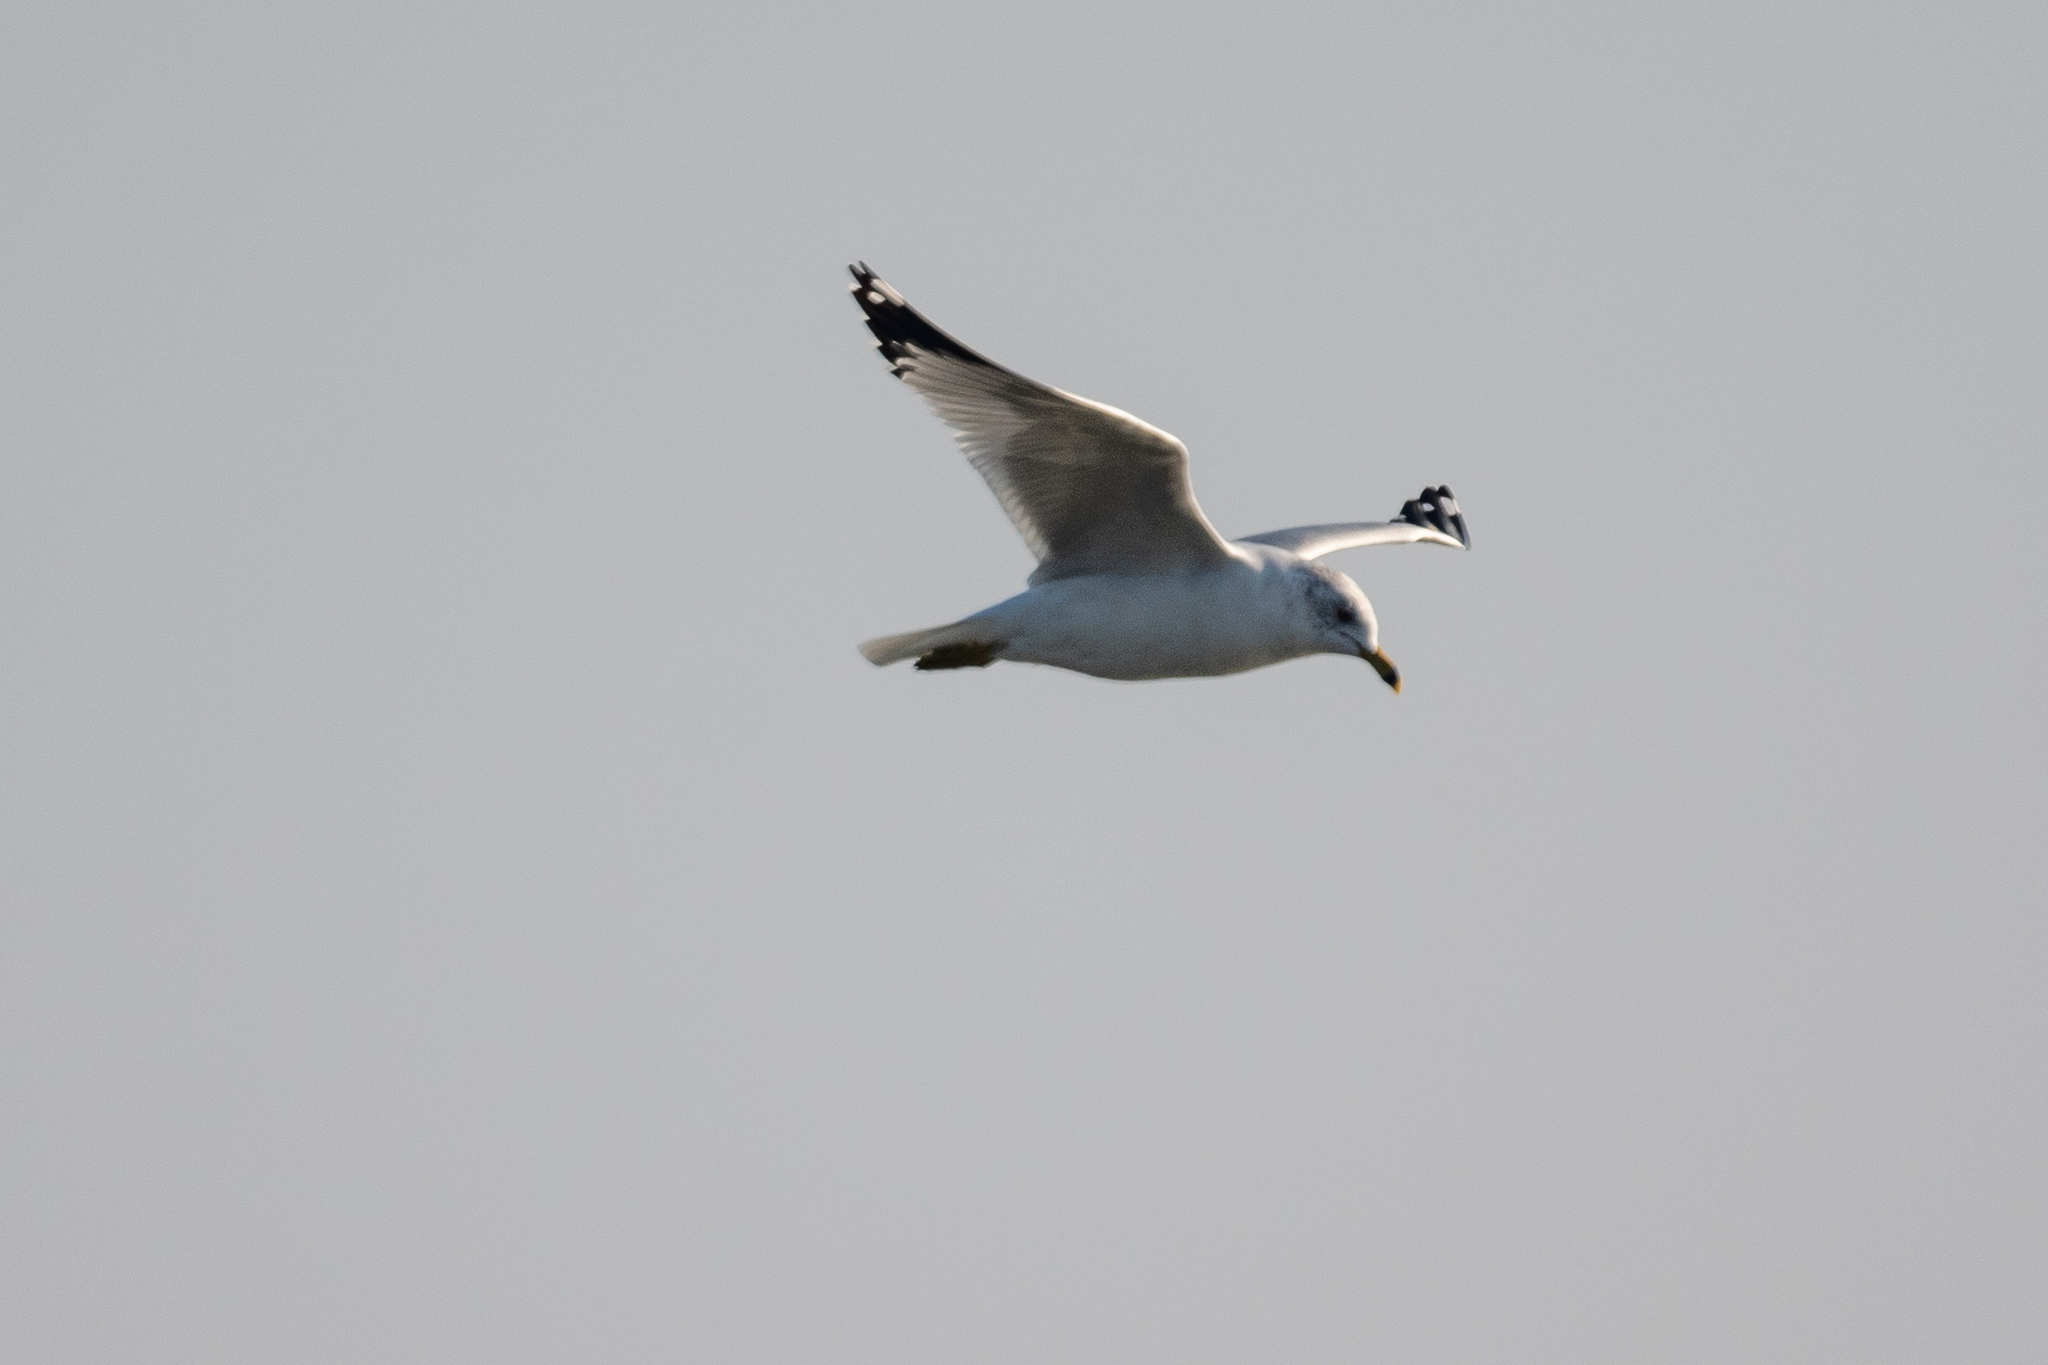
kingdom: Animalia
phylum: Chordata
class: Aves
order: Charadriiformes
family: Laridae
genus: Larus
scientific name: Larus delawarensis
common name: Ring-billed gull
